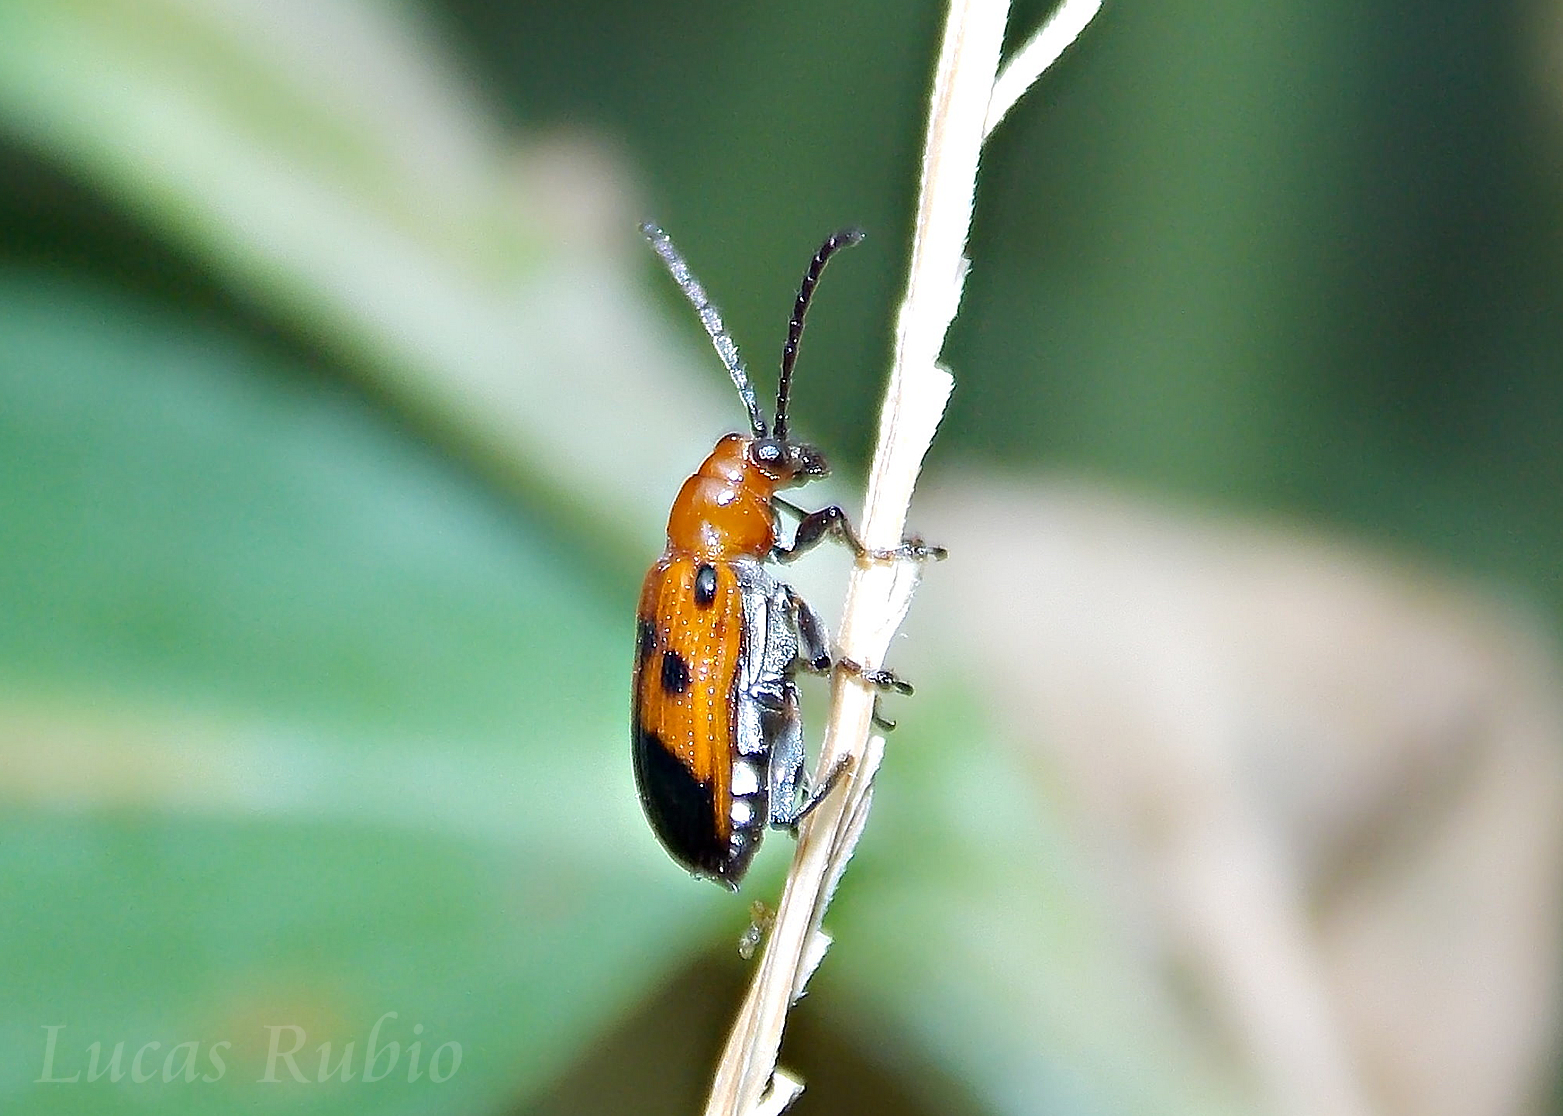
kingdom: Animalia
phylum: Arthropoda
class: Insecta
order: Coleoptera
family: Chrysomelidae
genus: Neolema
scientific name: Neolema dorsalis
